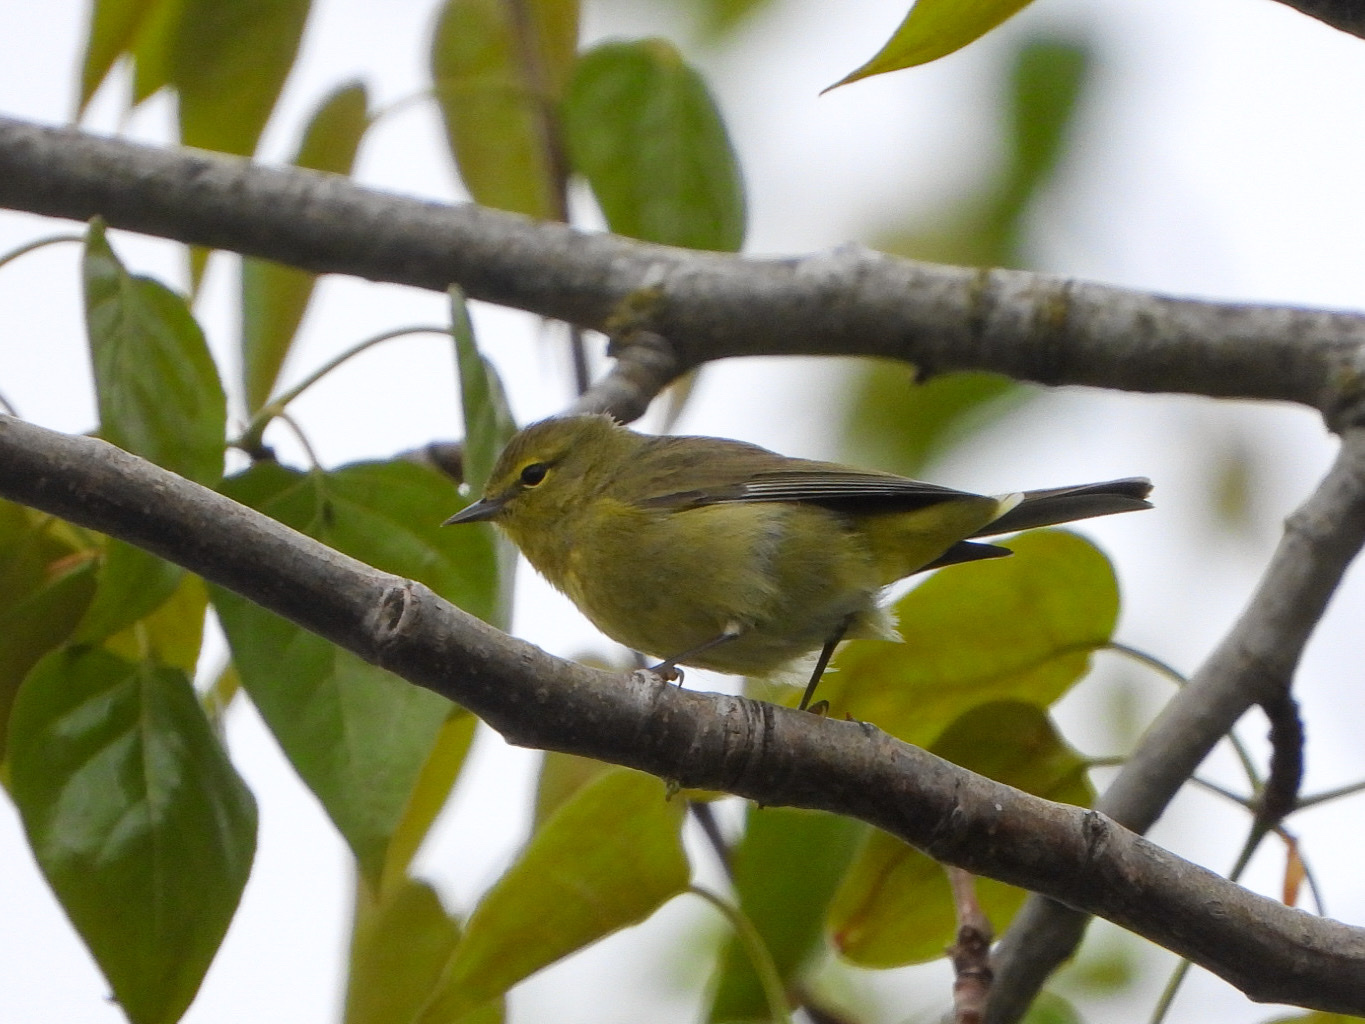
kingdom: Animalia
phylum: Chordata
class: Aves
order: Passeriformes
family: Parulidae
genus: Leiothlypis
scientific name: Leiothlypis celata
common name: Orange-crowned warbler
